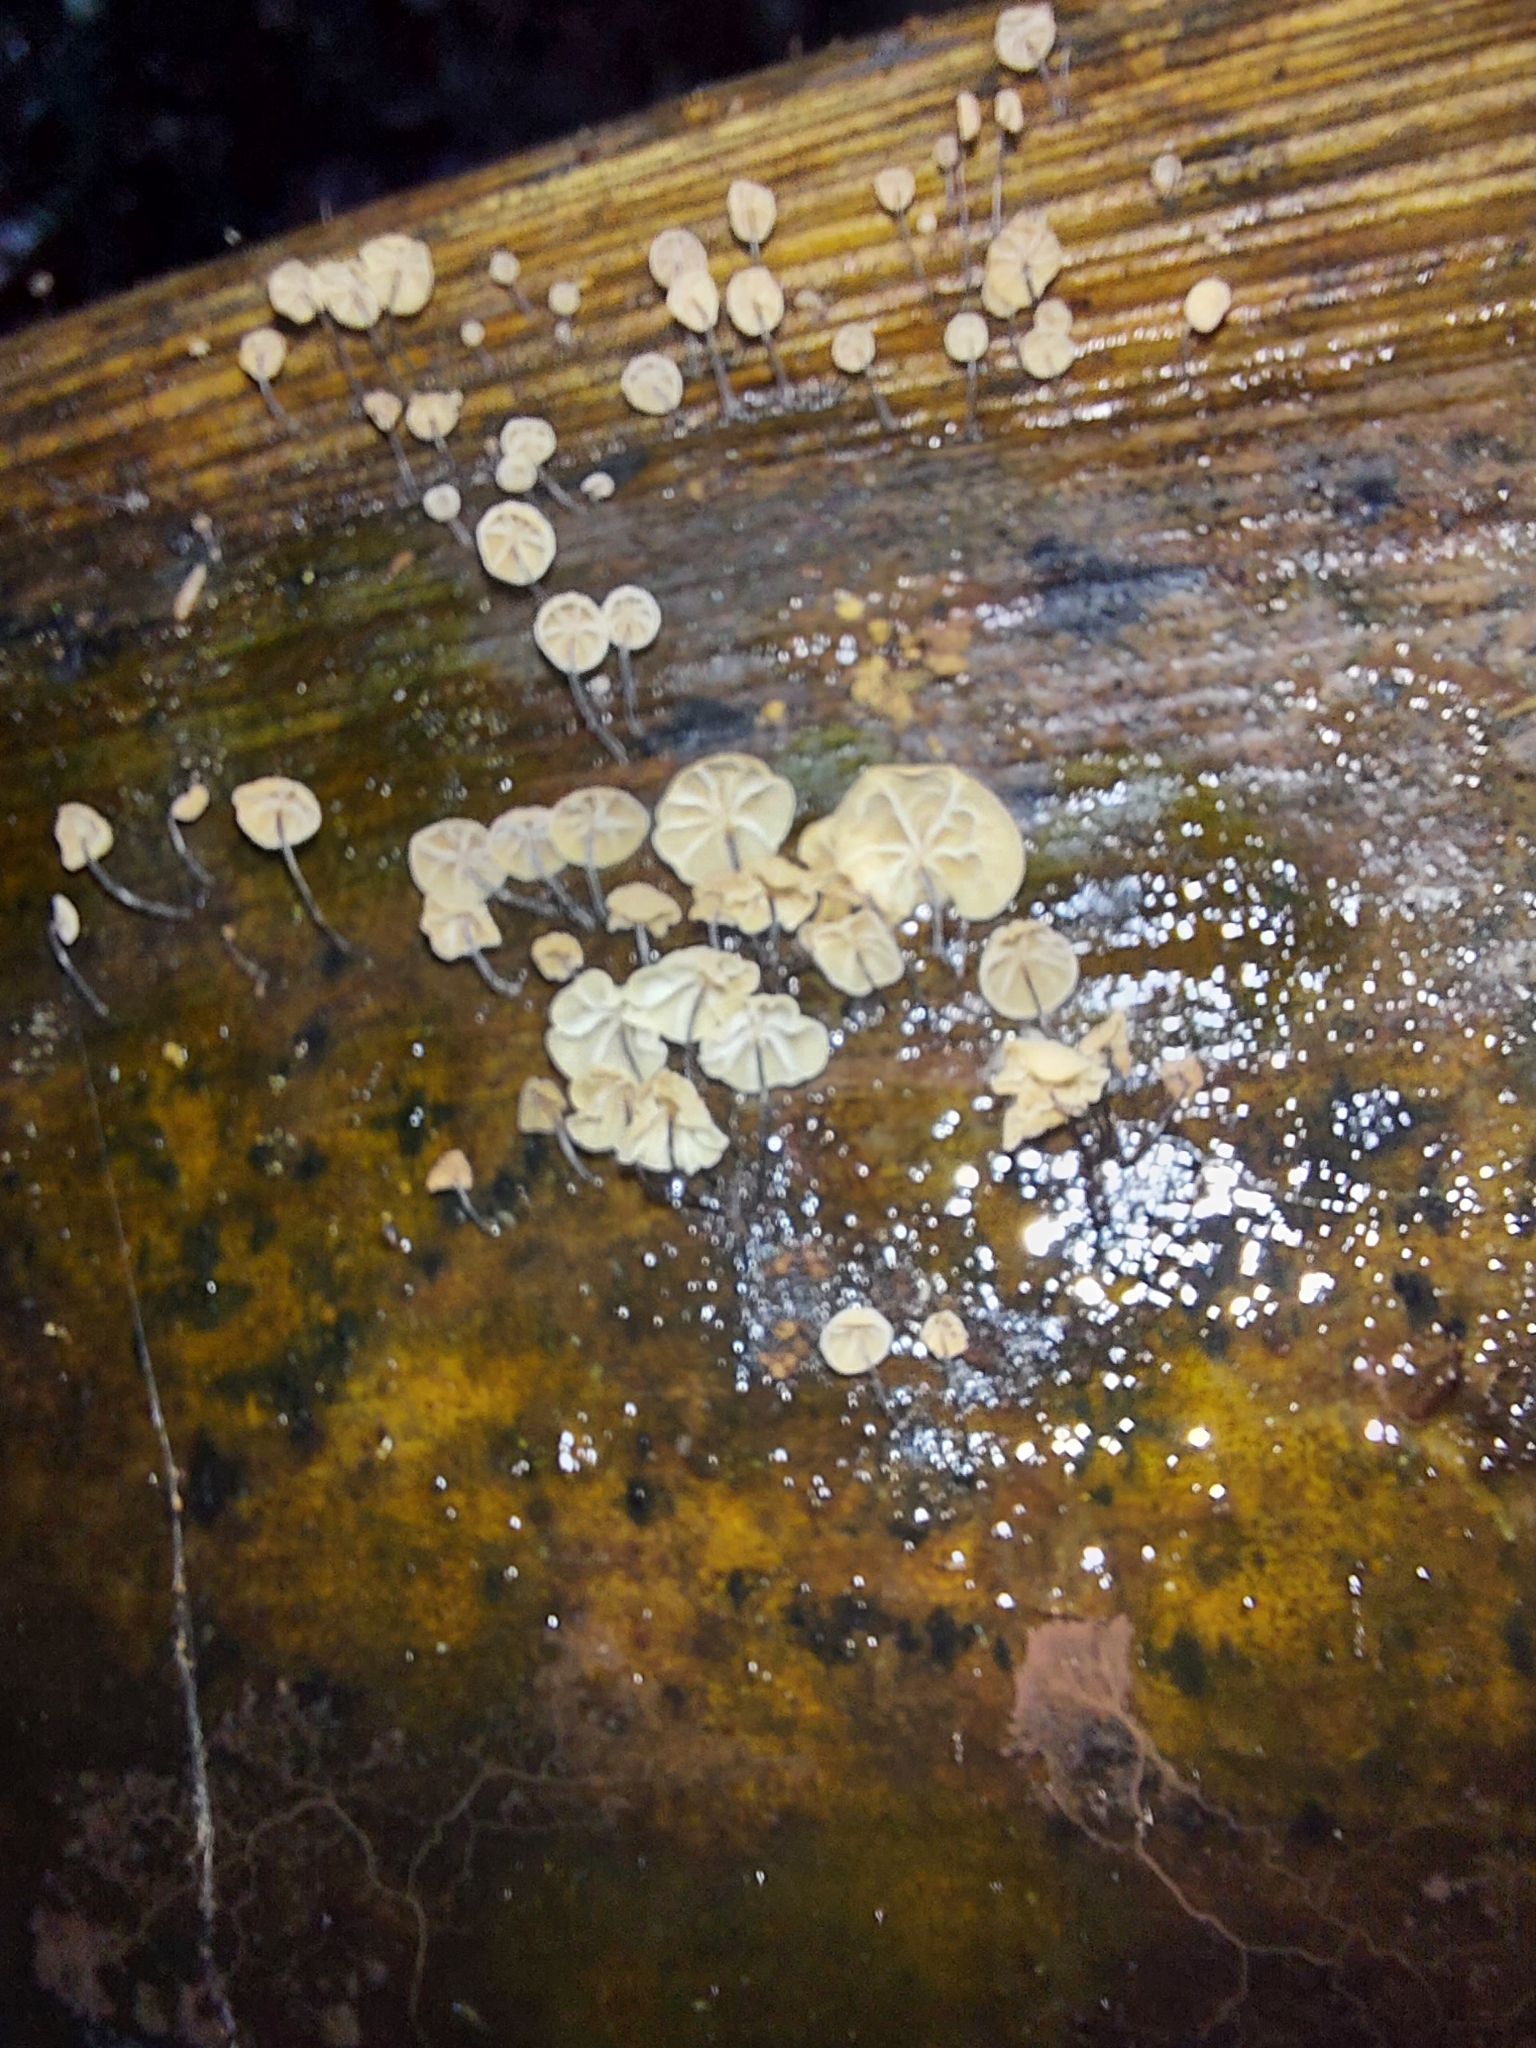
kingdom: Fungi
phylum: Basidiomycota
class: Agaricomycetes
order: Agaricales
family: Physalacriaceae
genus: Cryptomarasmius
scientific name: Cryptomarasmius rhopalostylidis
